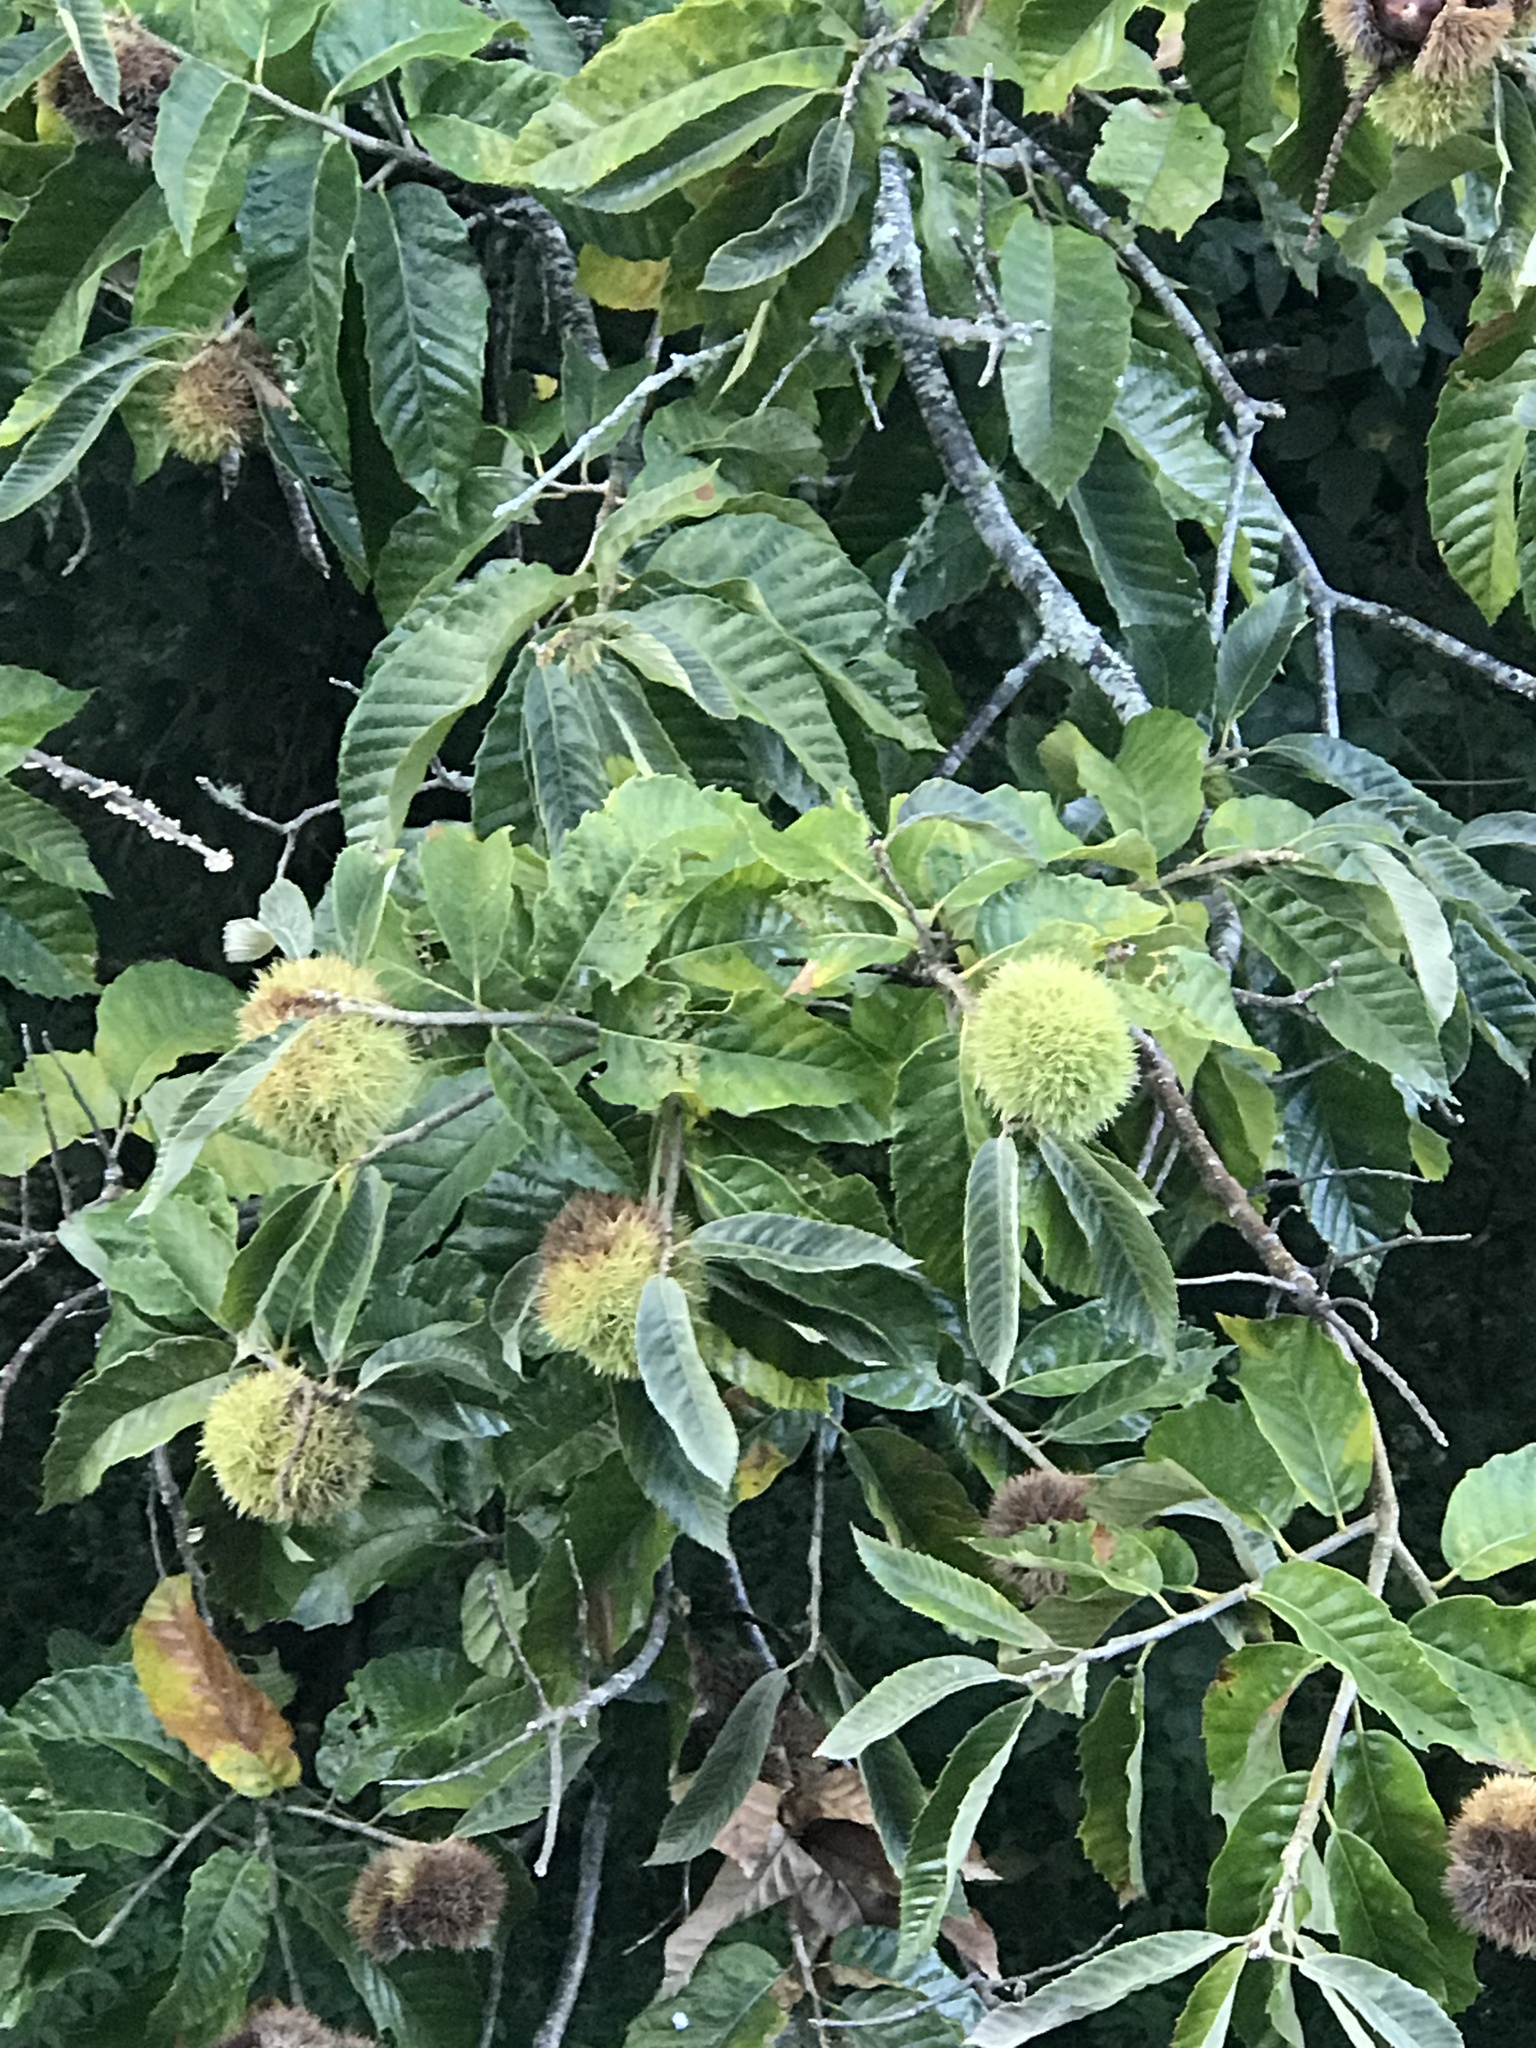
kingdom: Plantae
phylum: Tracheophyta
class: Magnoliopsida
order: Fagales
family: Fagaceae
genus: Castanea
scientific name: Castanea mollissima
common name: Chinese chestnut
